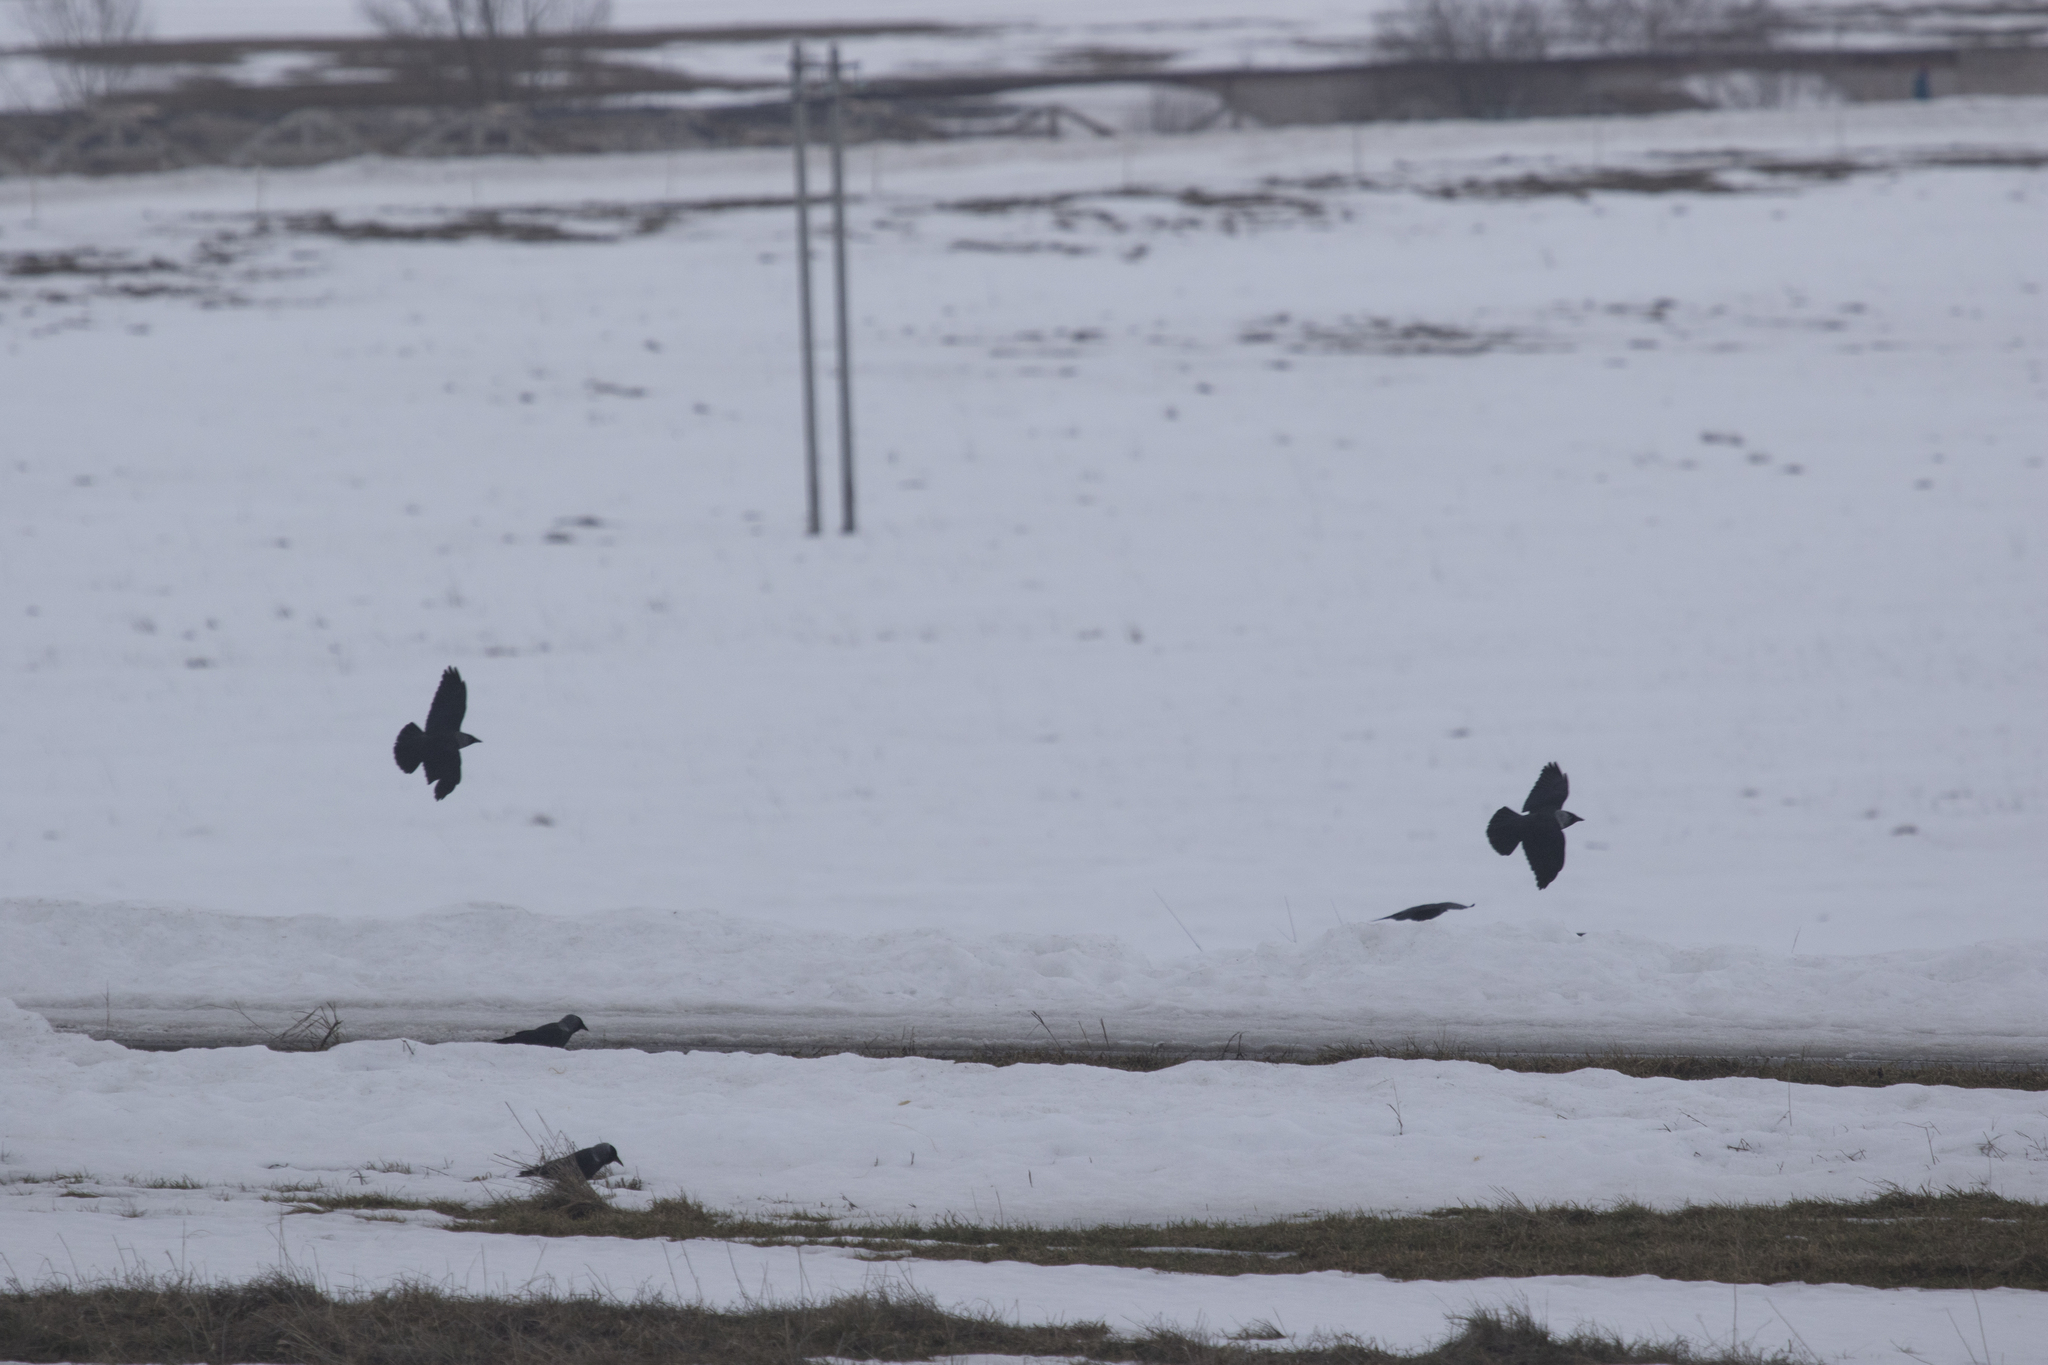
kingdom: Animalia
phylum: Chordata
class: Aves
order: Passeriformes
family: Corvidae
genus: Coloeus
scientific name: Coloeus monedula
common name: Western jackdaw
